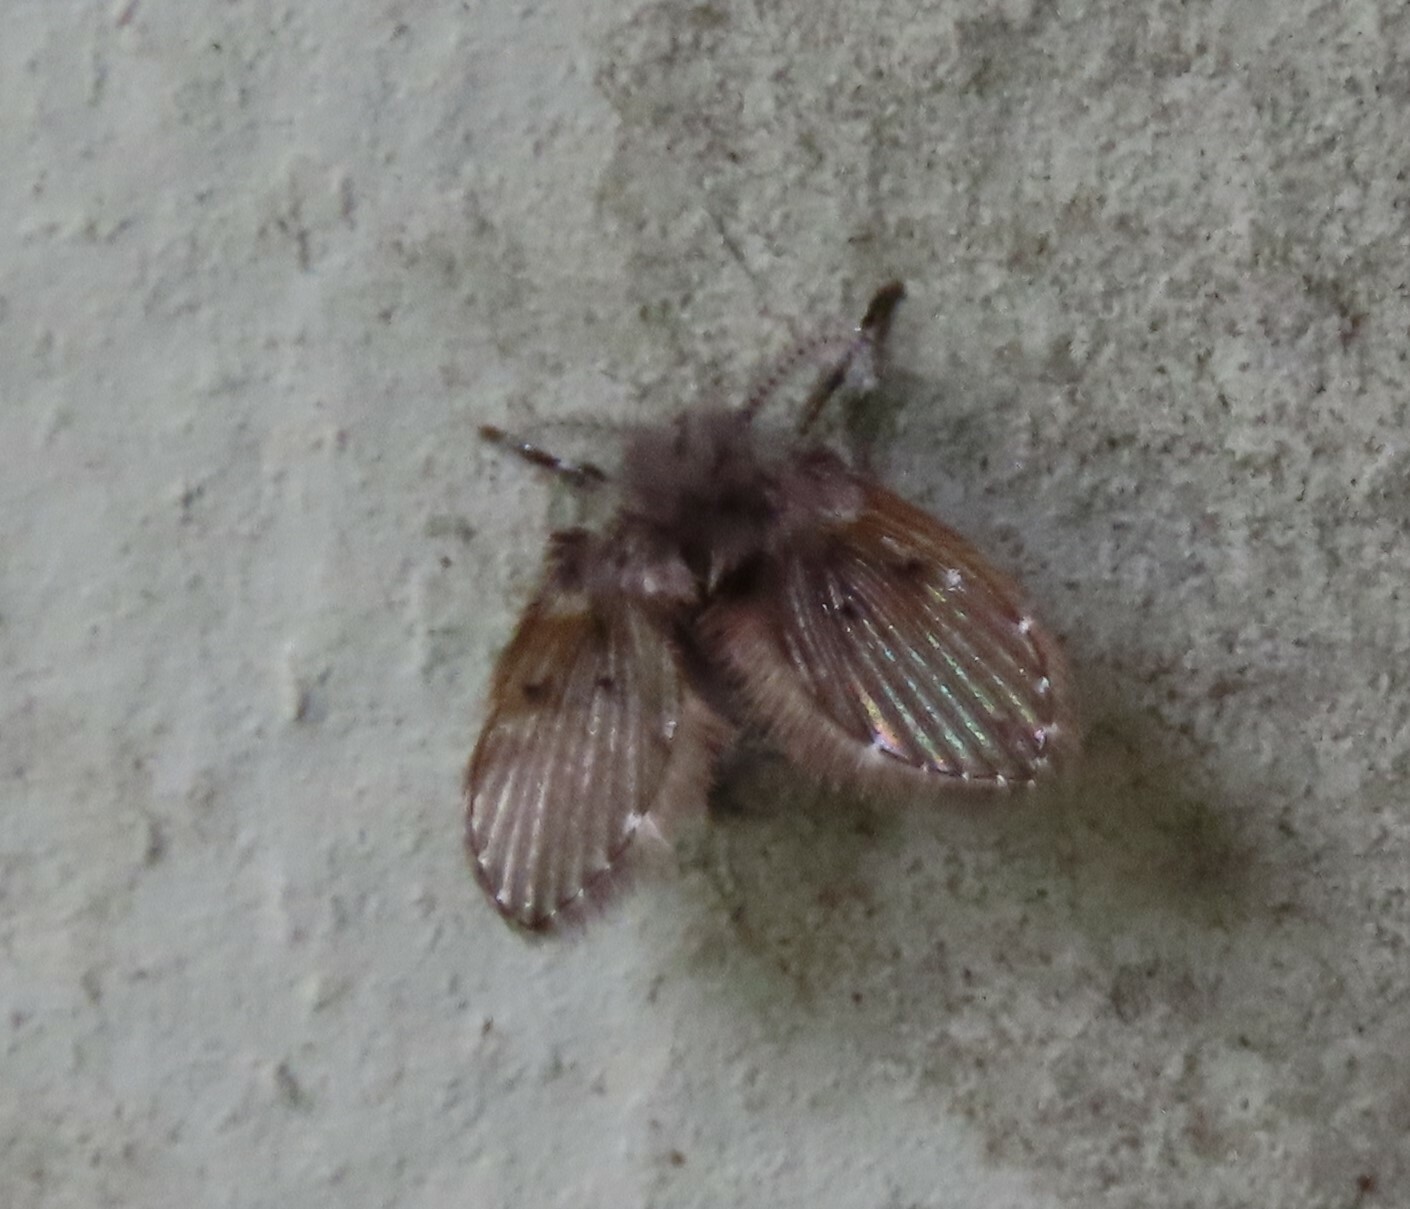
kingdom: Animalia
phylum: Arthropoda
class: Insecta
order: Diptera
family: Psychodidae
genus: Clogmia
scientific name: Clogmia albipunctatus
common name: White-spotted moth fly
